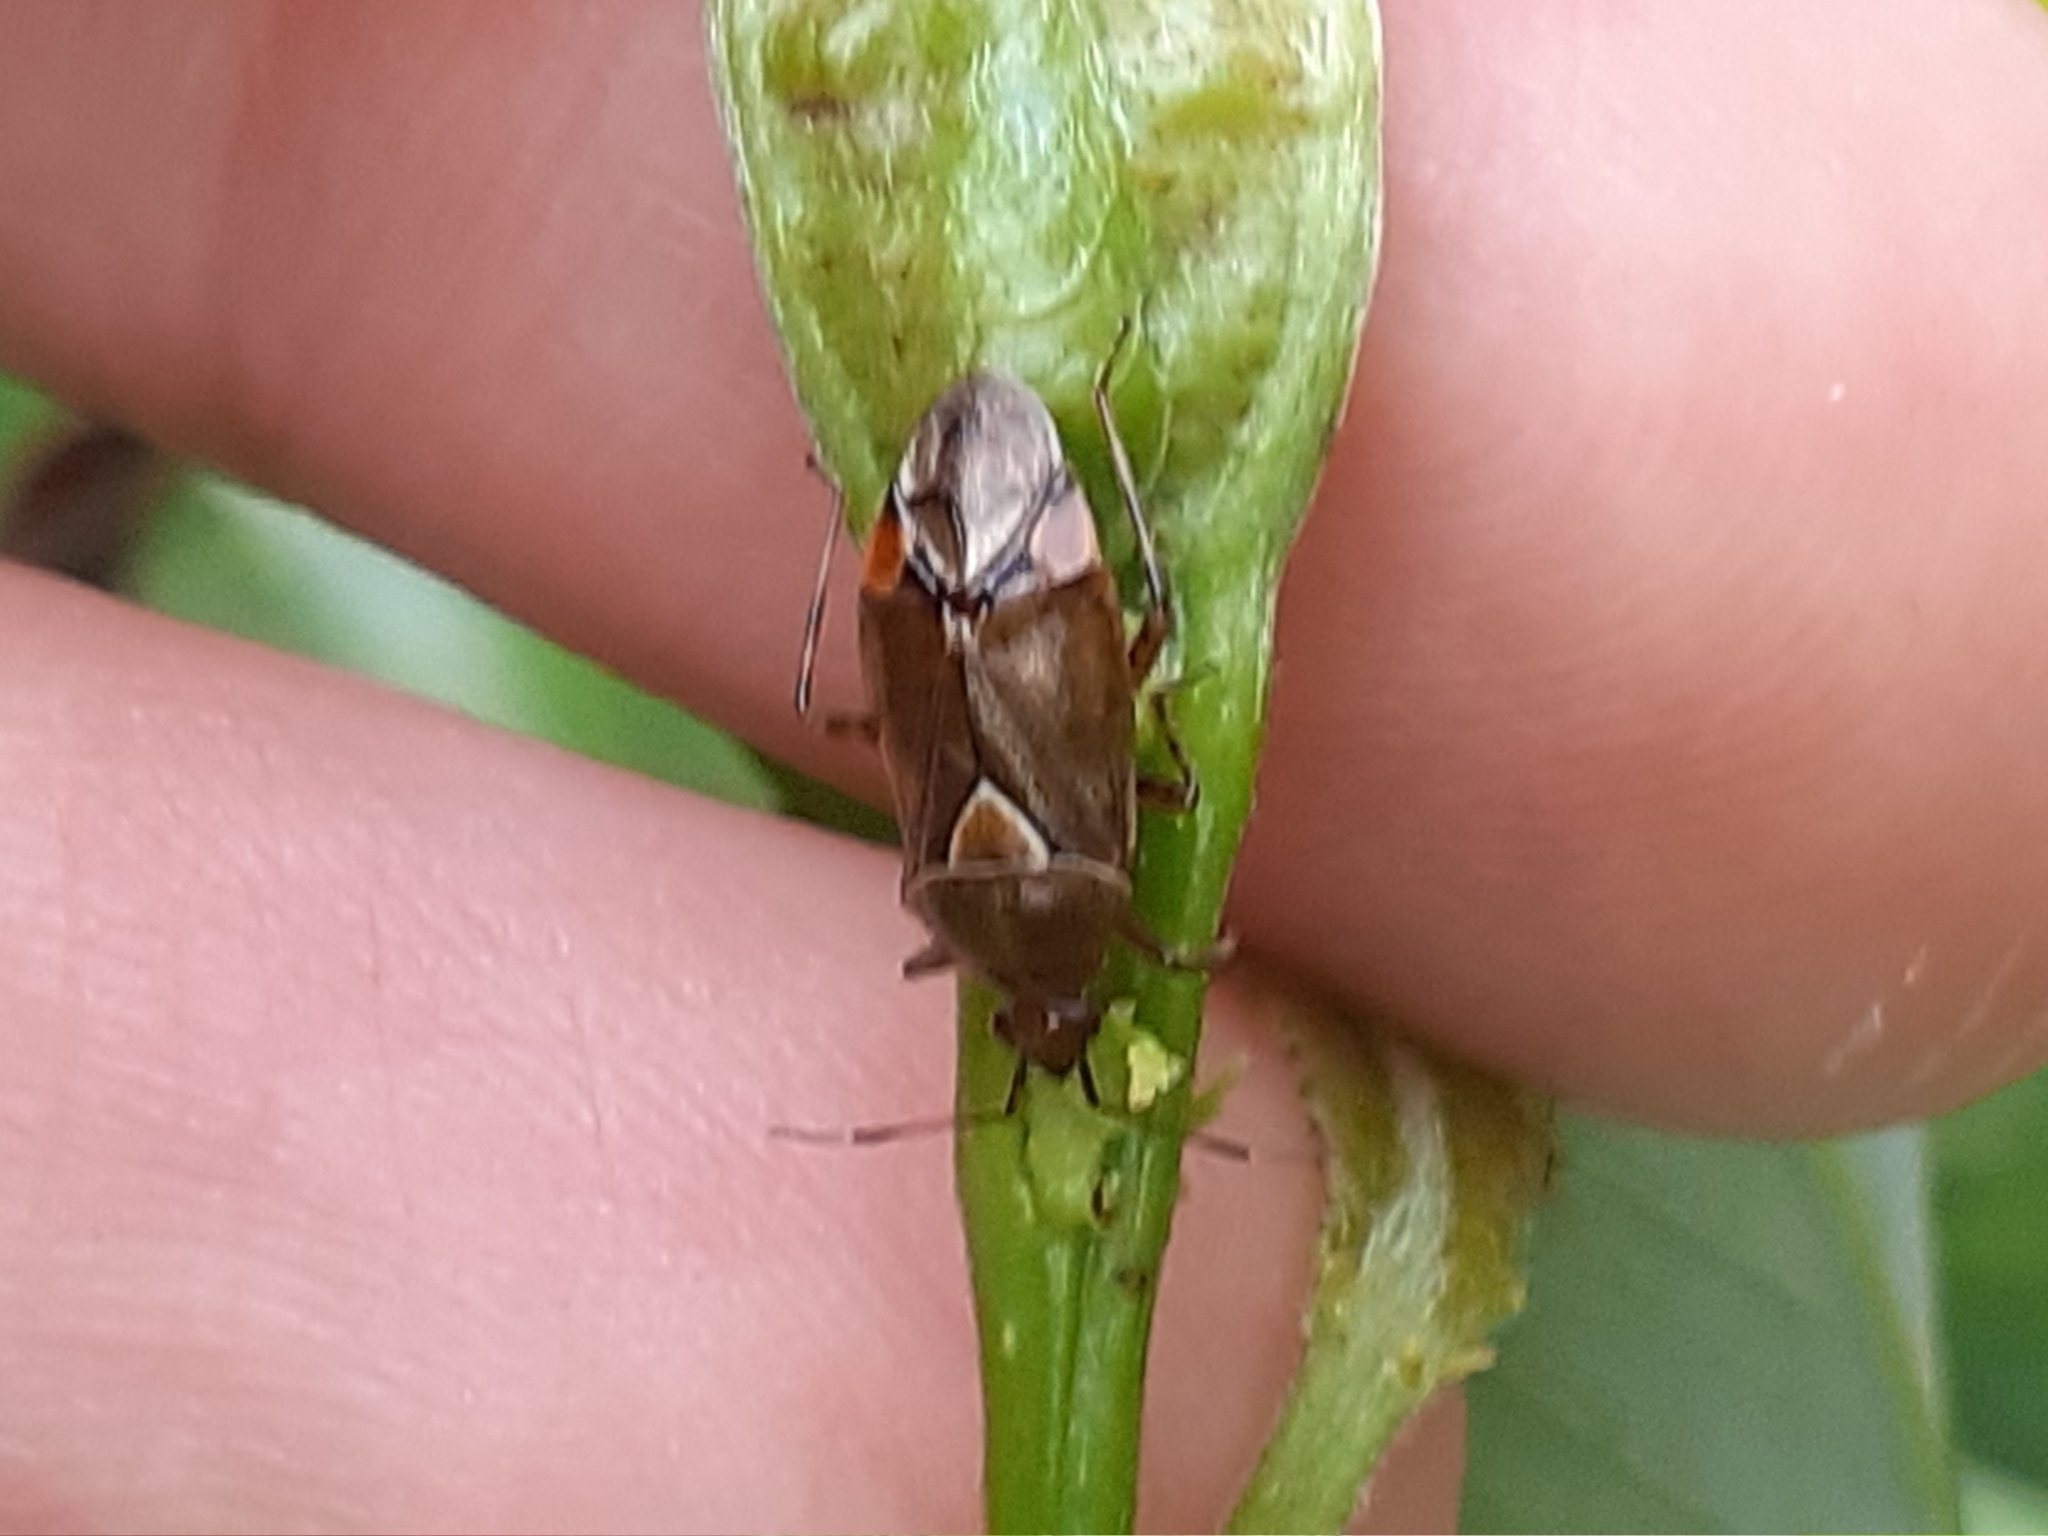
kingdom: Animalia
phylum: Arthropoda
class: Insecta
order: Hemiptera
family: Miridae
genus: Deraeocoris
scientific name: Deraeocoris flavilinea
